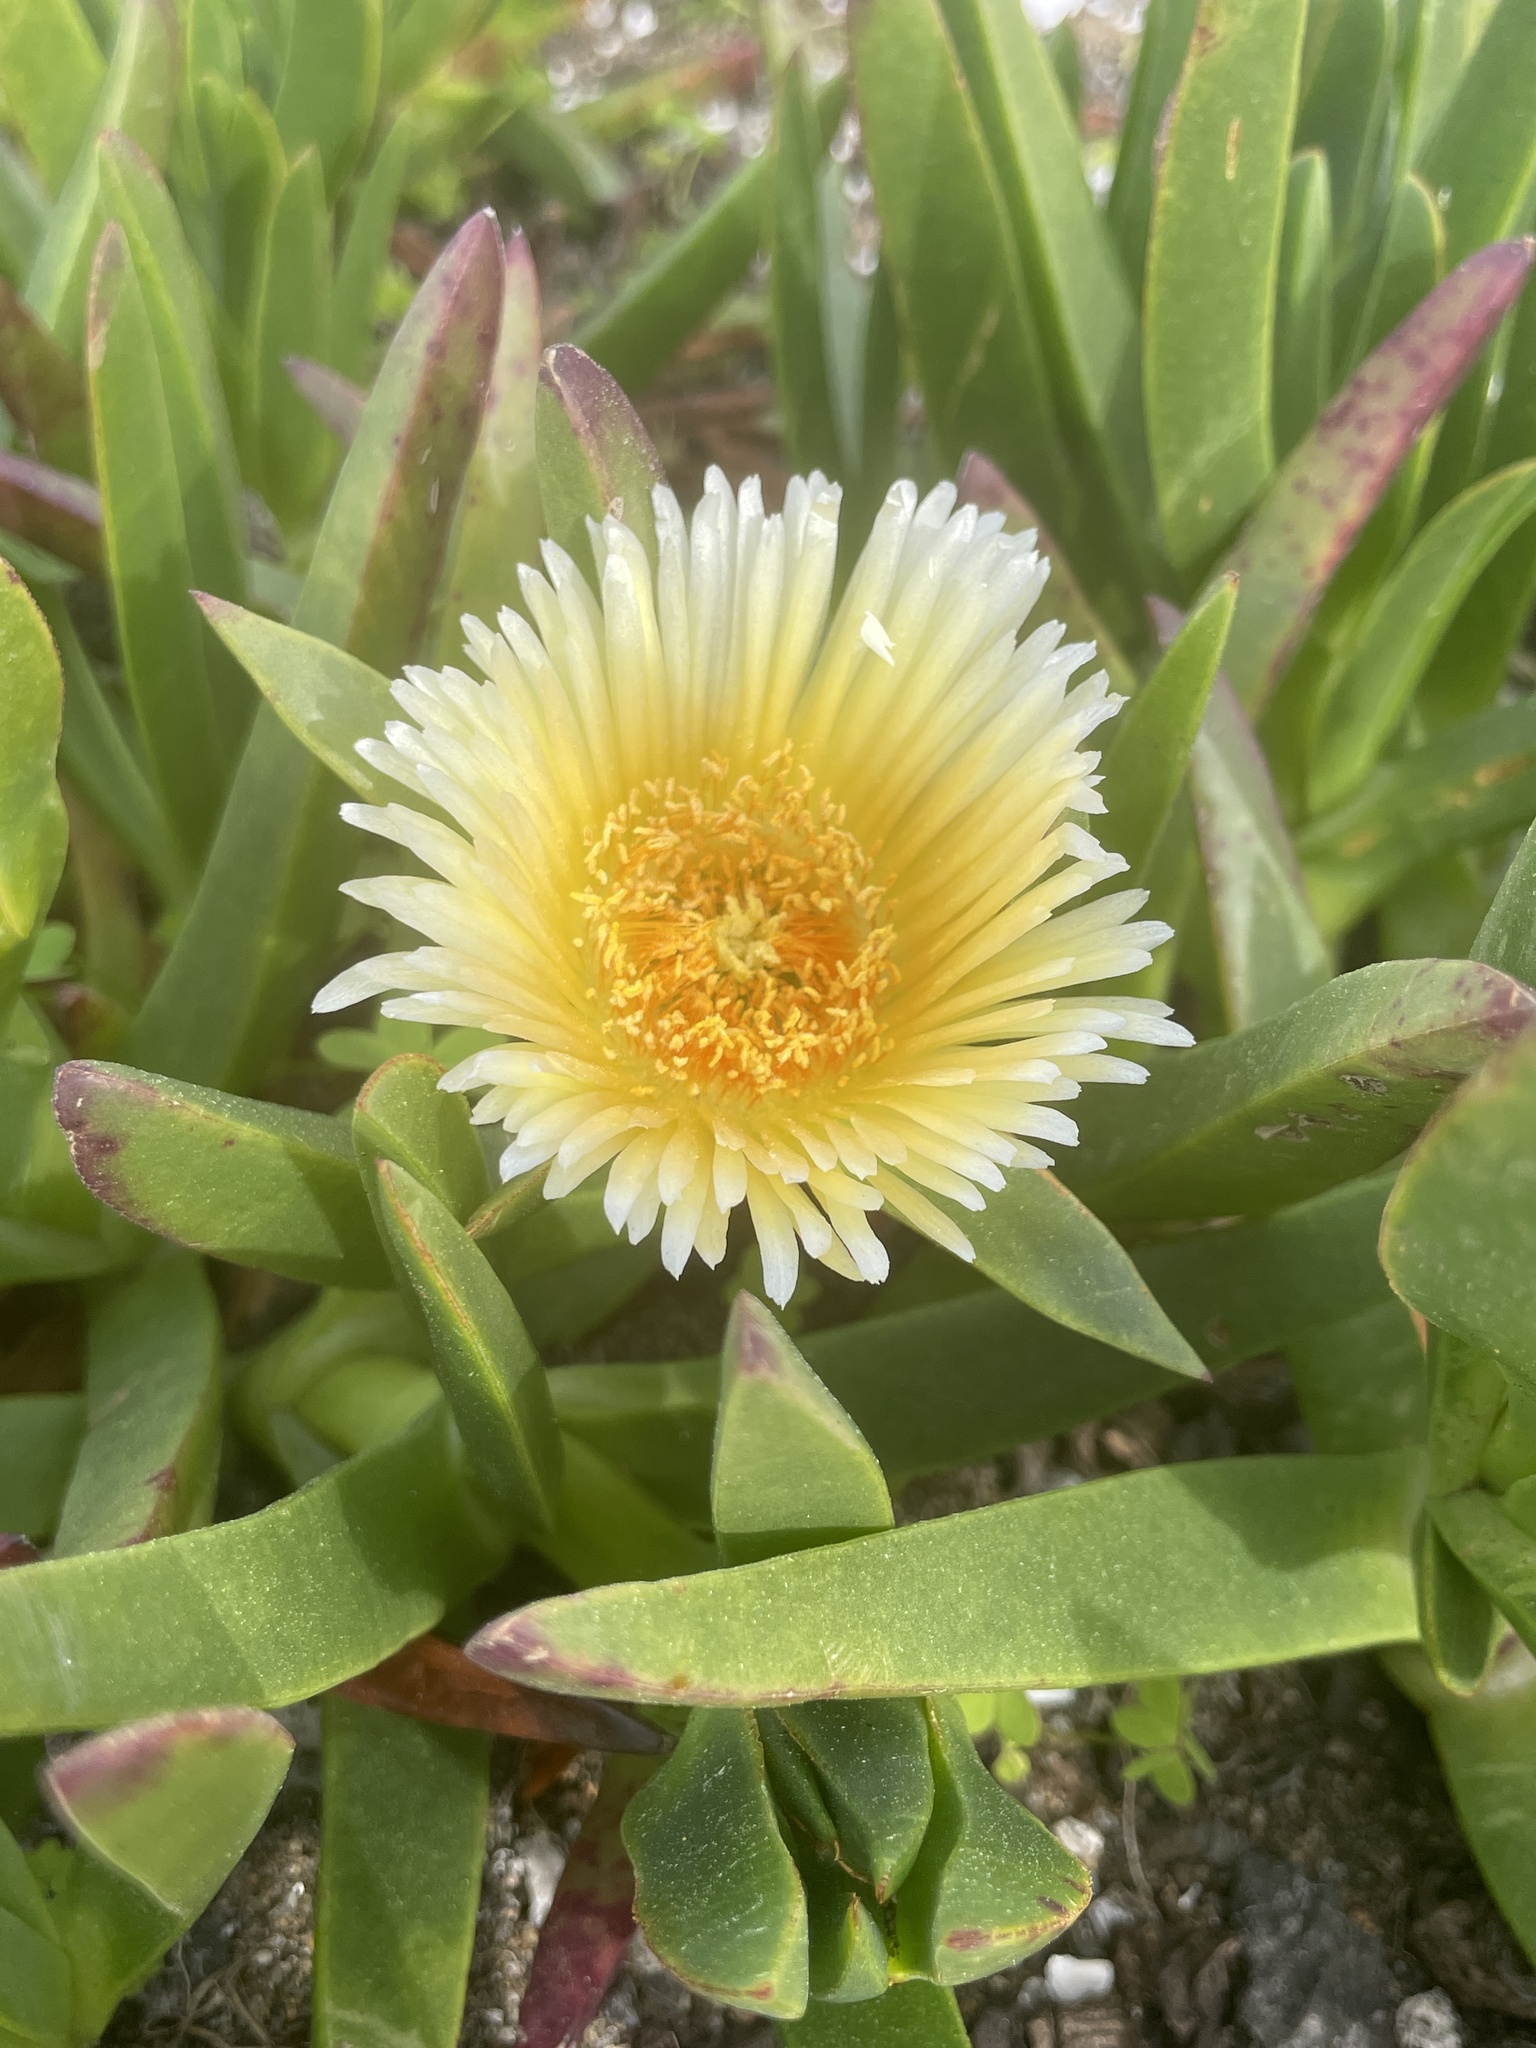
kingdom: Plantae
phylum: Tracheophyta
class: Magnoliopsida
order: Caryophyllales
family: Aizoaceae
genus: Carpobrotus
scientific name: Carpobrotus edulis
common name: Hottentot-fig
